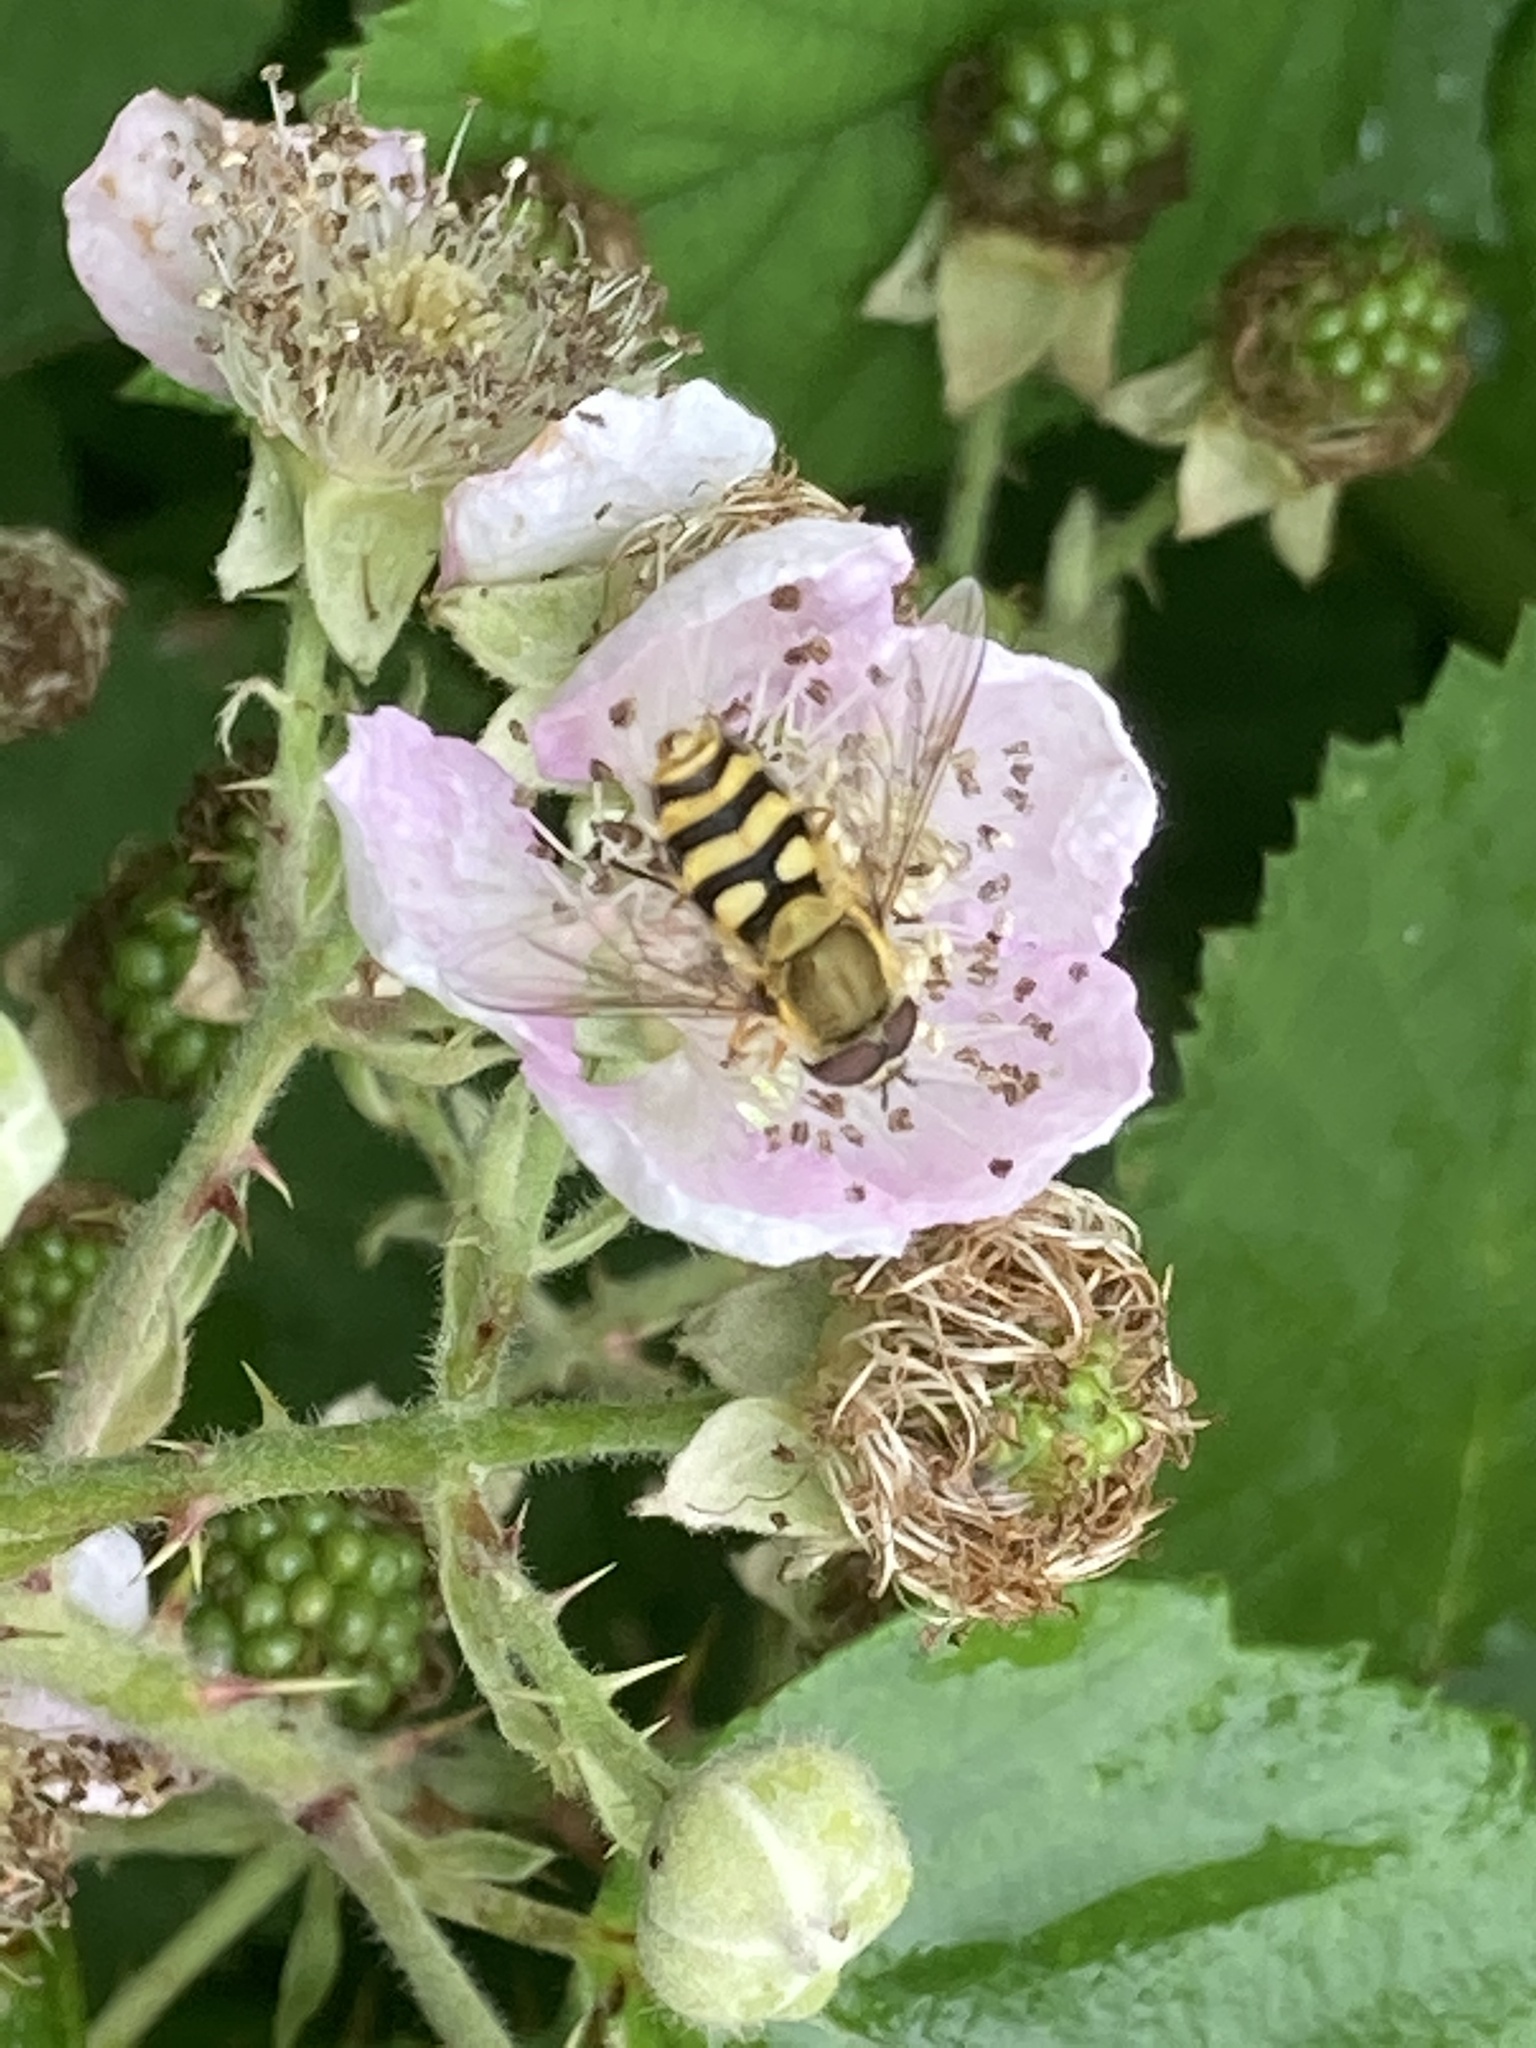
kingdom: Animalia
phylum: Arthropoda
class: Insecta
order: Diptera
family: Syrphidae
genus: Syrphus
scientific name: Syrphus
